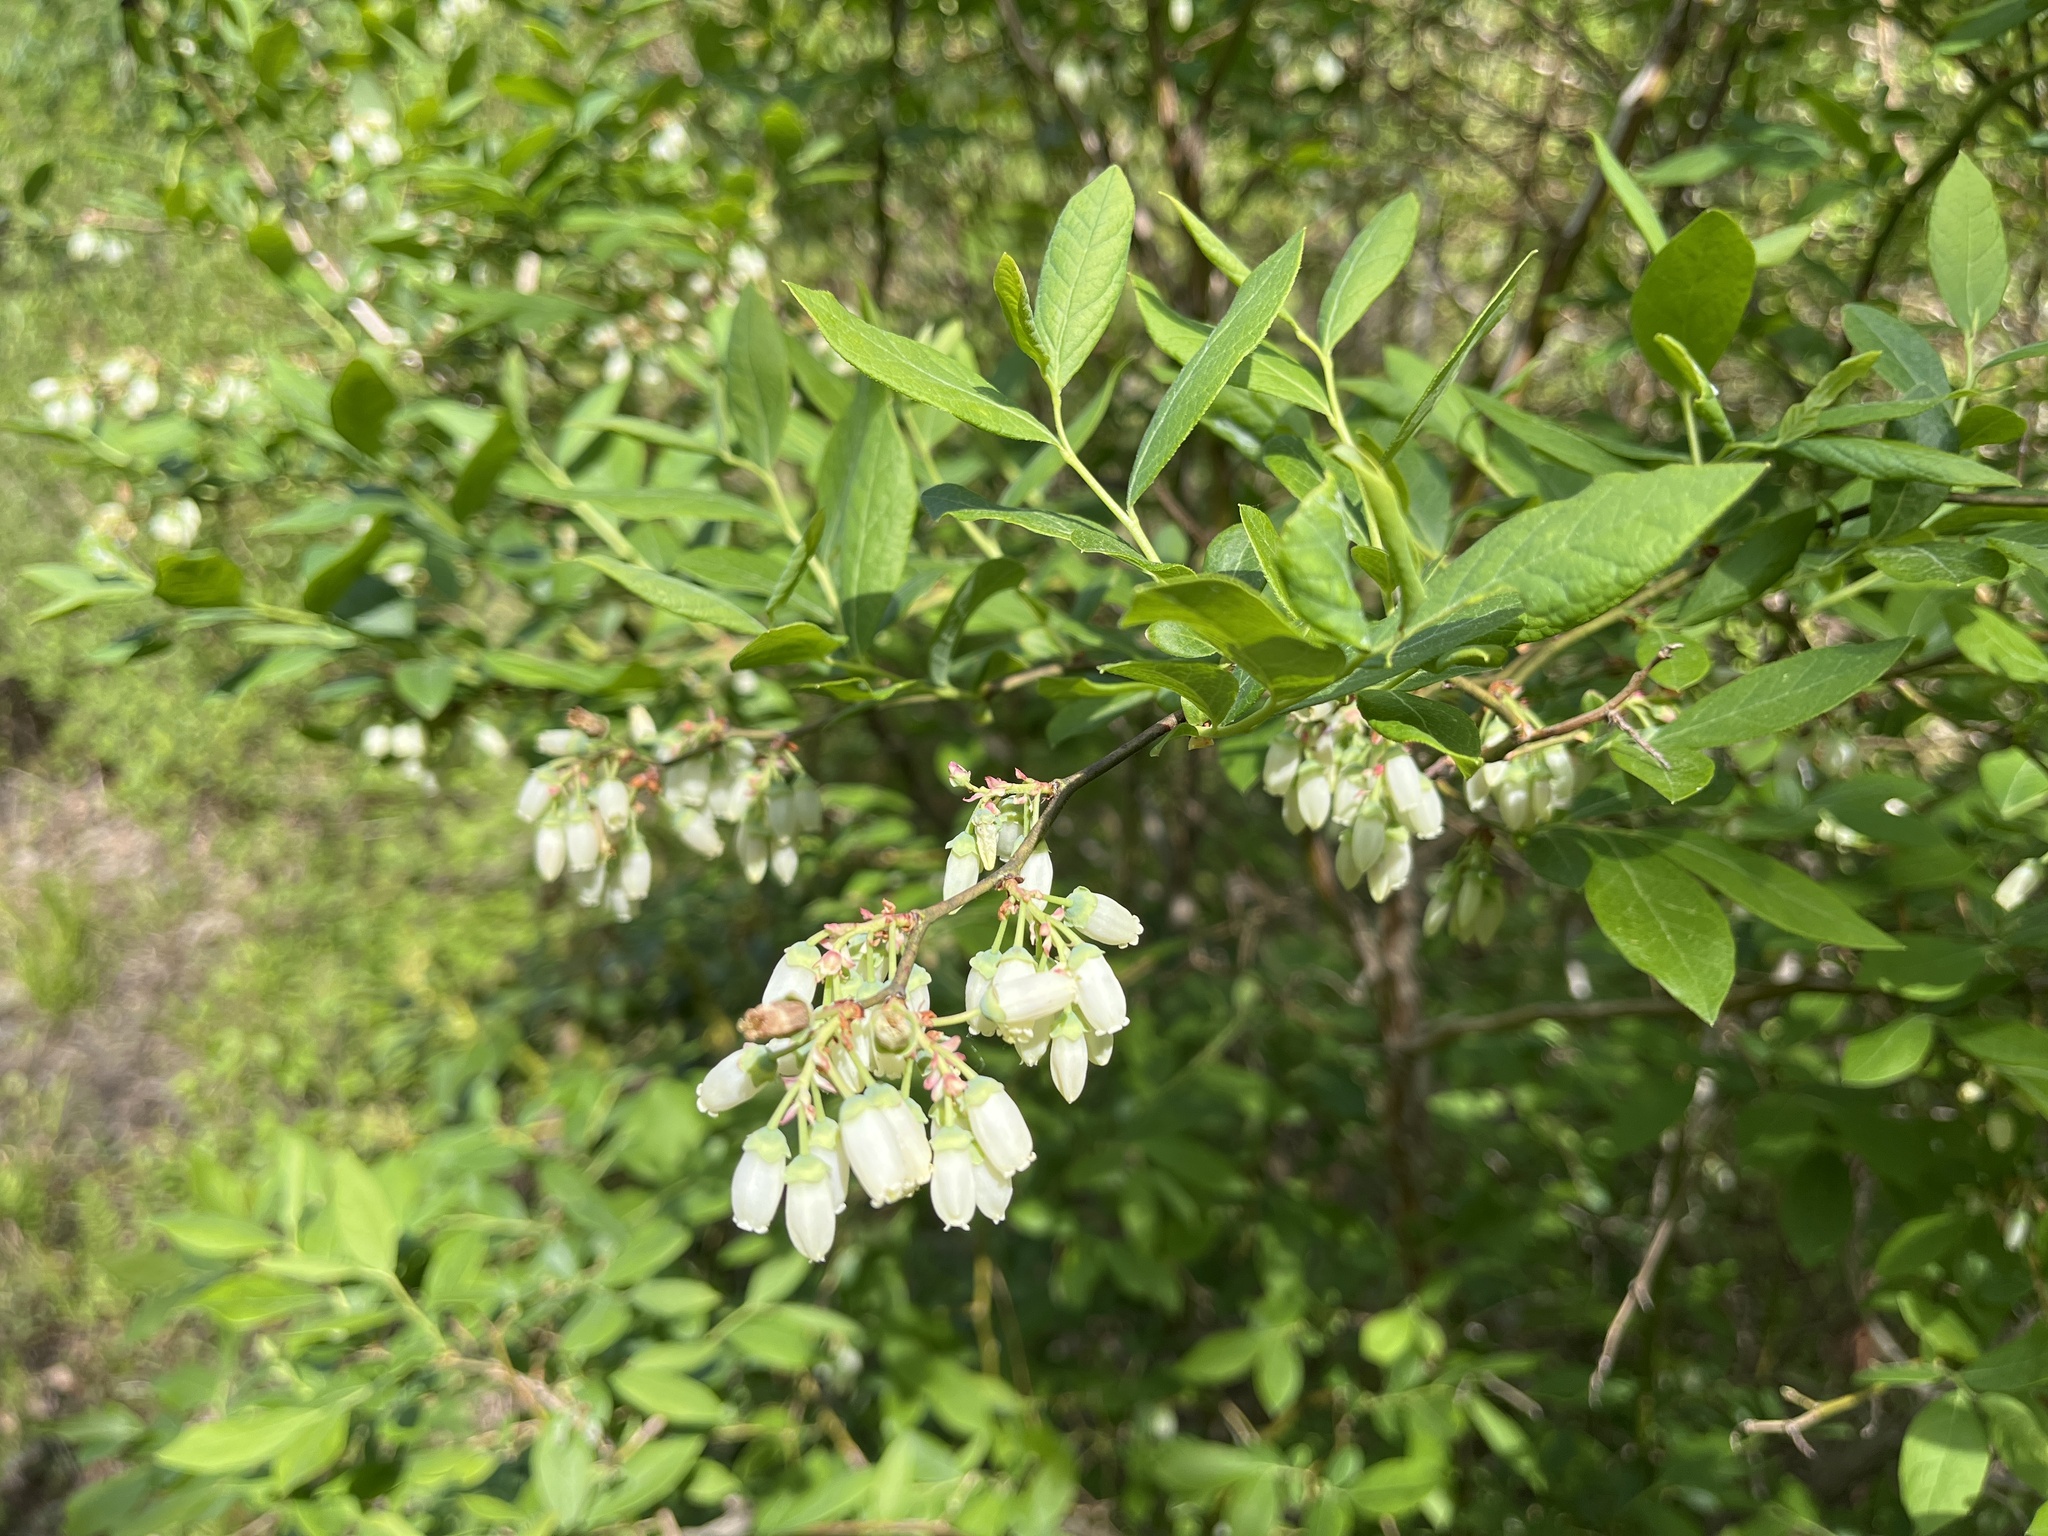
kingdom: Plantae
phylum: Tracheophyta
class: Magnoliopsida
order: Ericales
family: Ericaceae
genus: Vaccinium
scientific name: Vaccinium corymbosum
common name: Blueberry
